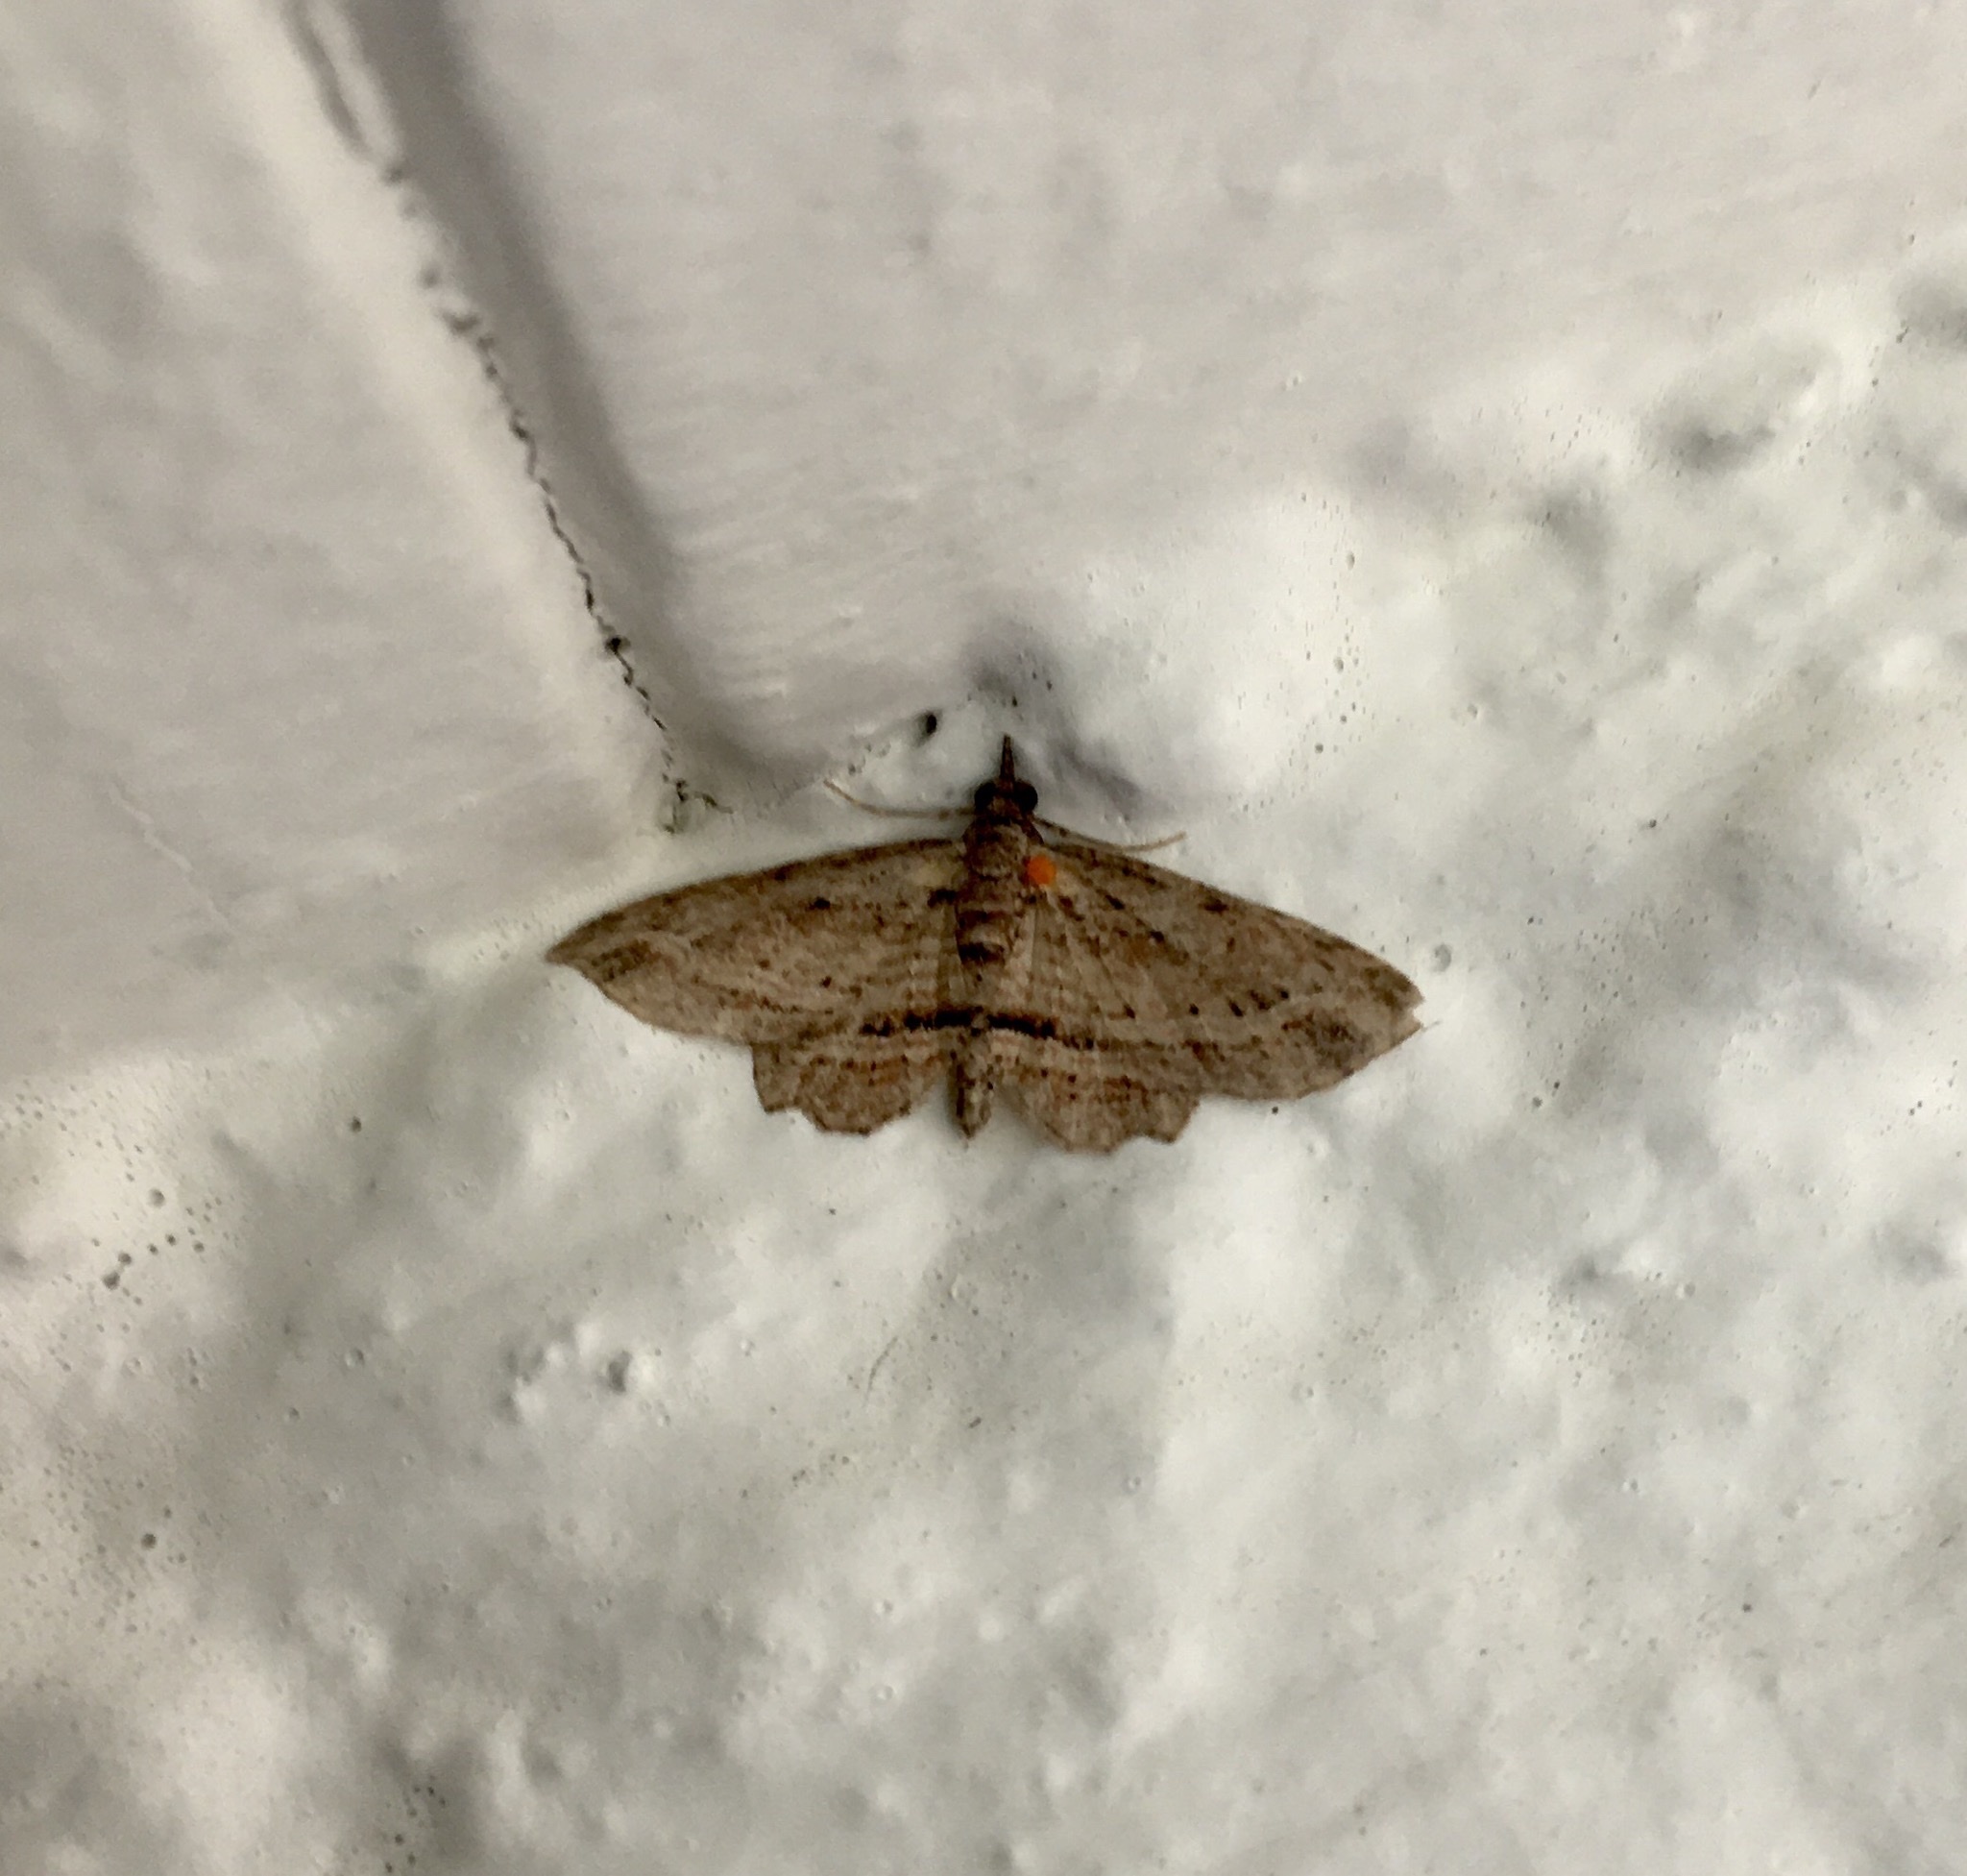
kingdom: Animalia
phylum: Arthropoda
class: Insecta
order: Lepidoptera
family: Geometridae
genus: Chloroclystis
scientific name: Chloroclystis filata
